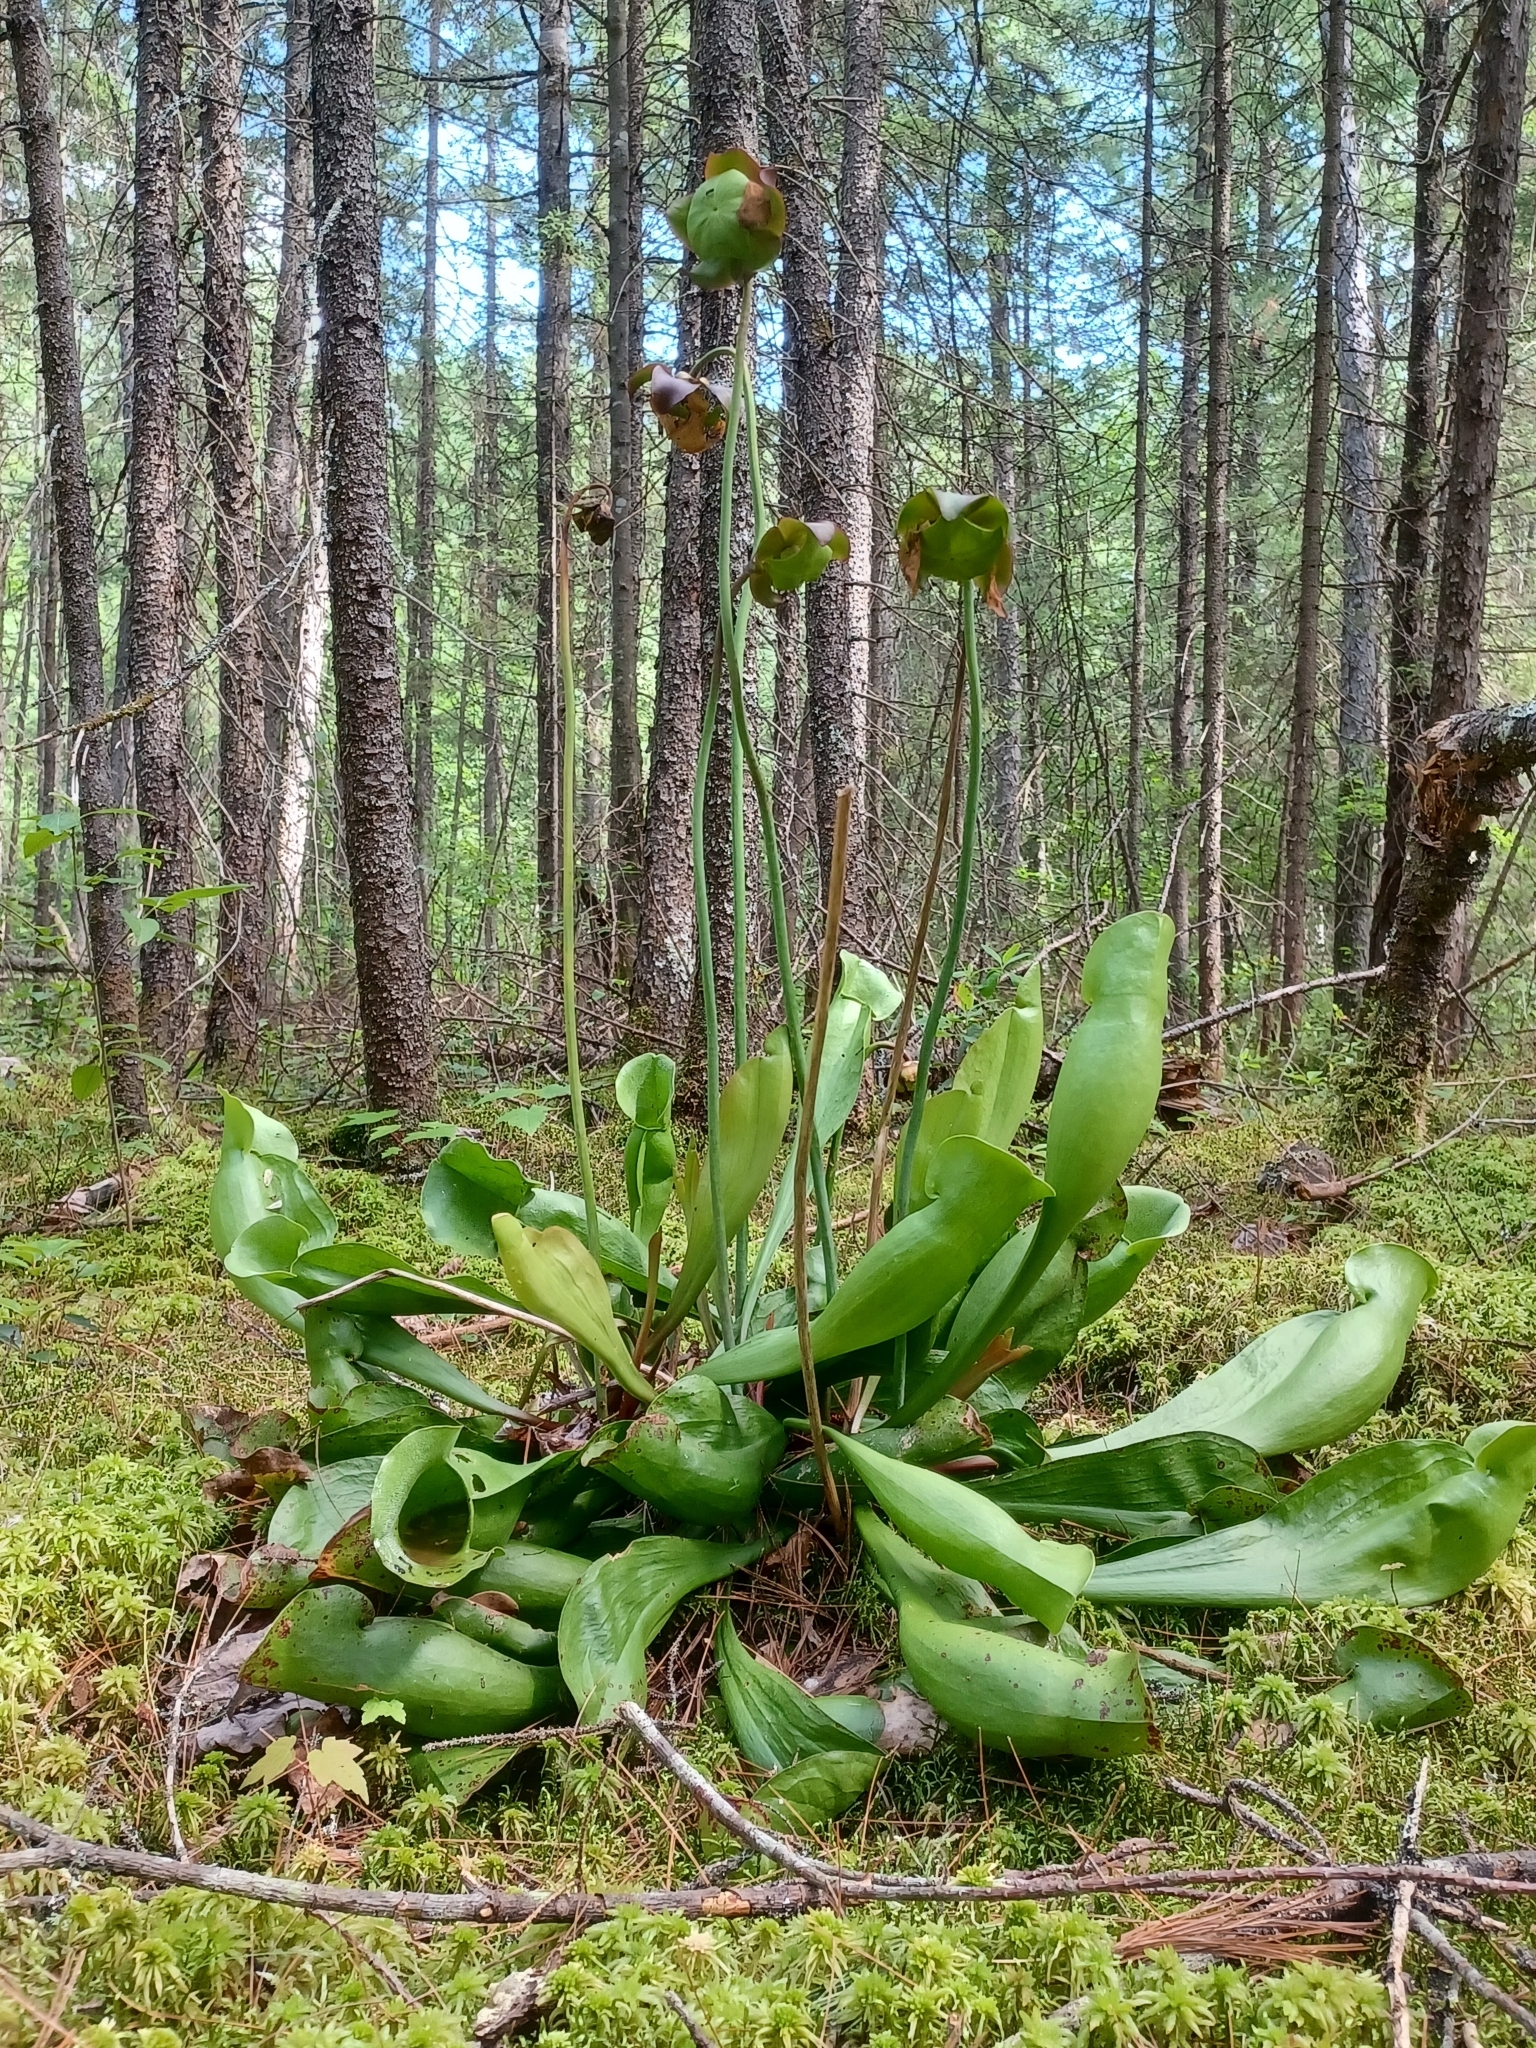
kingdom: Plantae
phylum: Tracheophyta
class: Magnoliopsida
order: Ericales
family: Sarraceniaceae
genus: Sarracenia
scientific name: Sarracenia purpurea
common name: Pitcherplant
